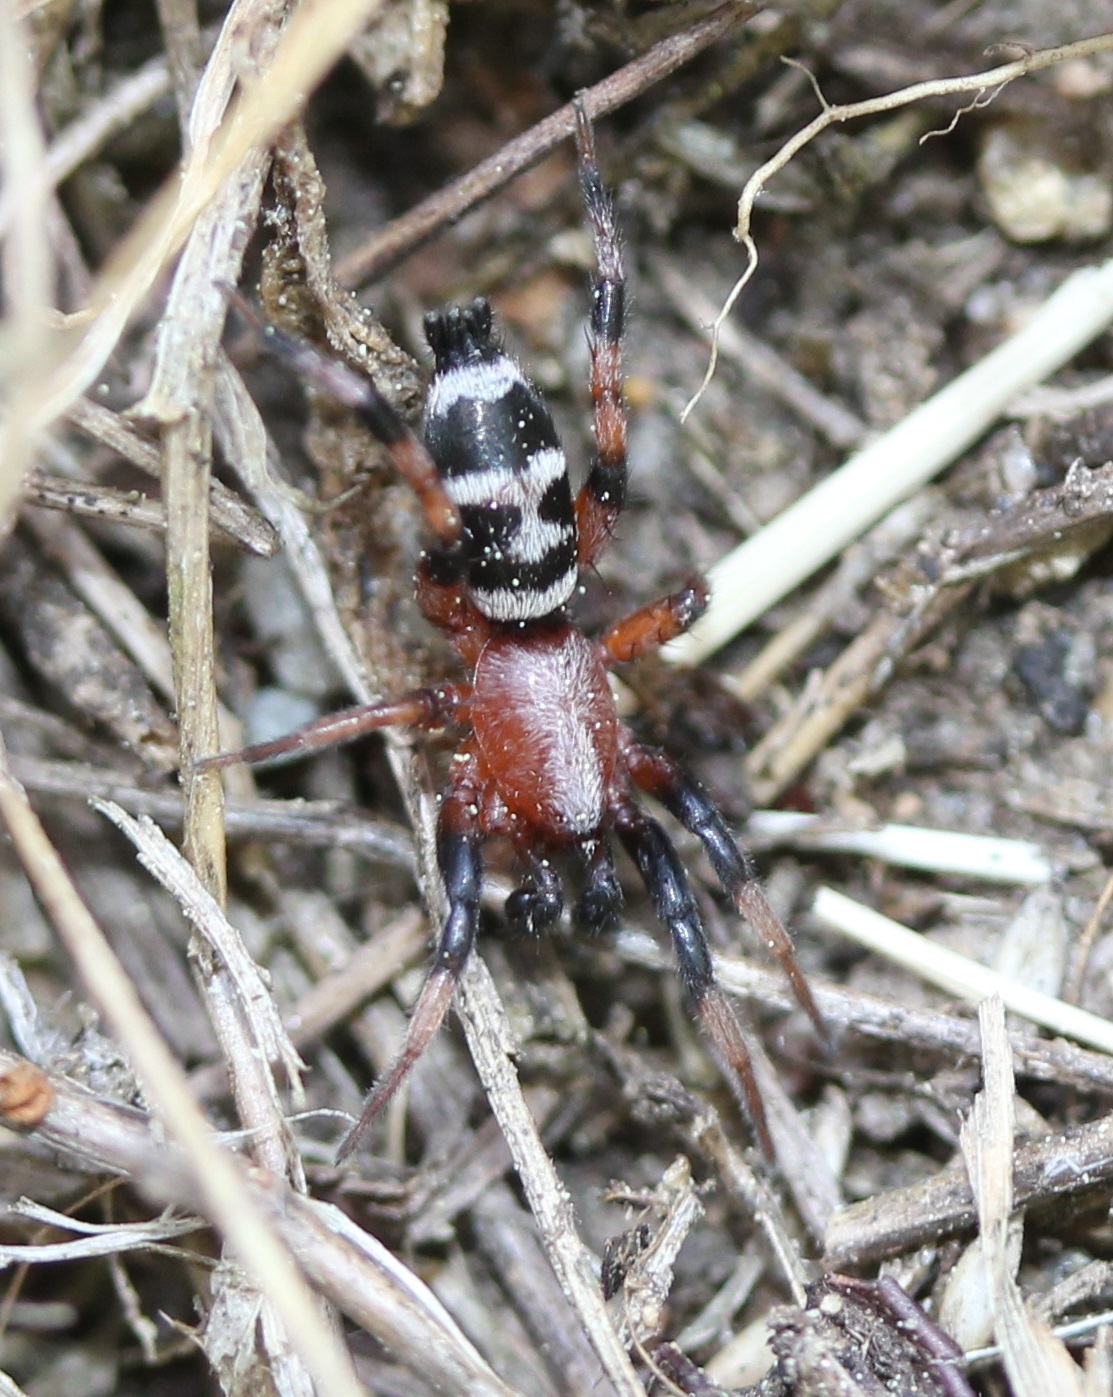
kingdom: Animalia
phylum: Arthropoda
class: Arachnida
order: Araneae
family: Gnaphosidae
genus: Sergiolus
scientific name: Sergiolus capulatus
